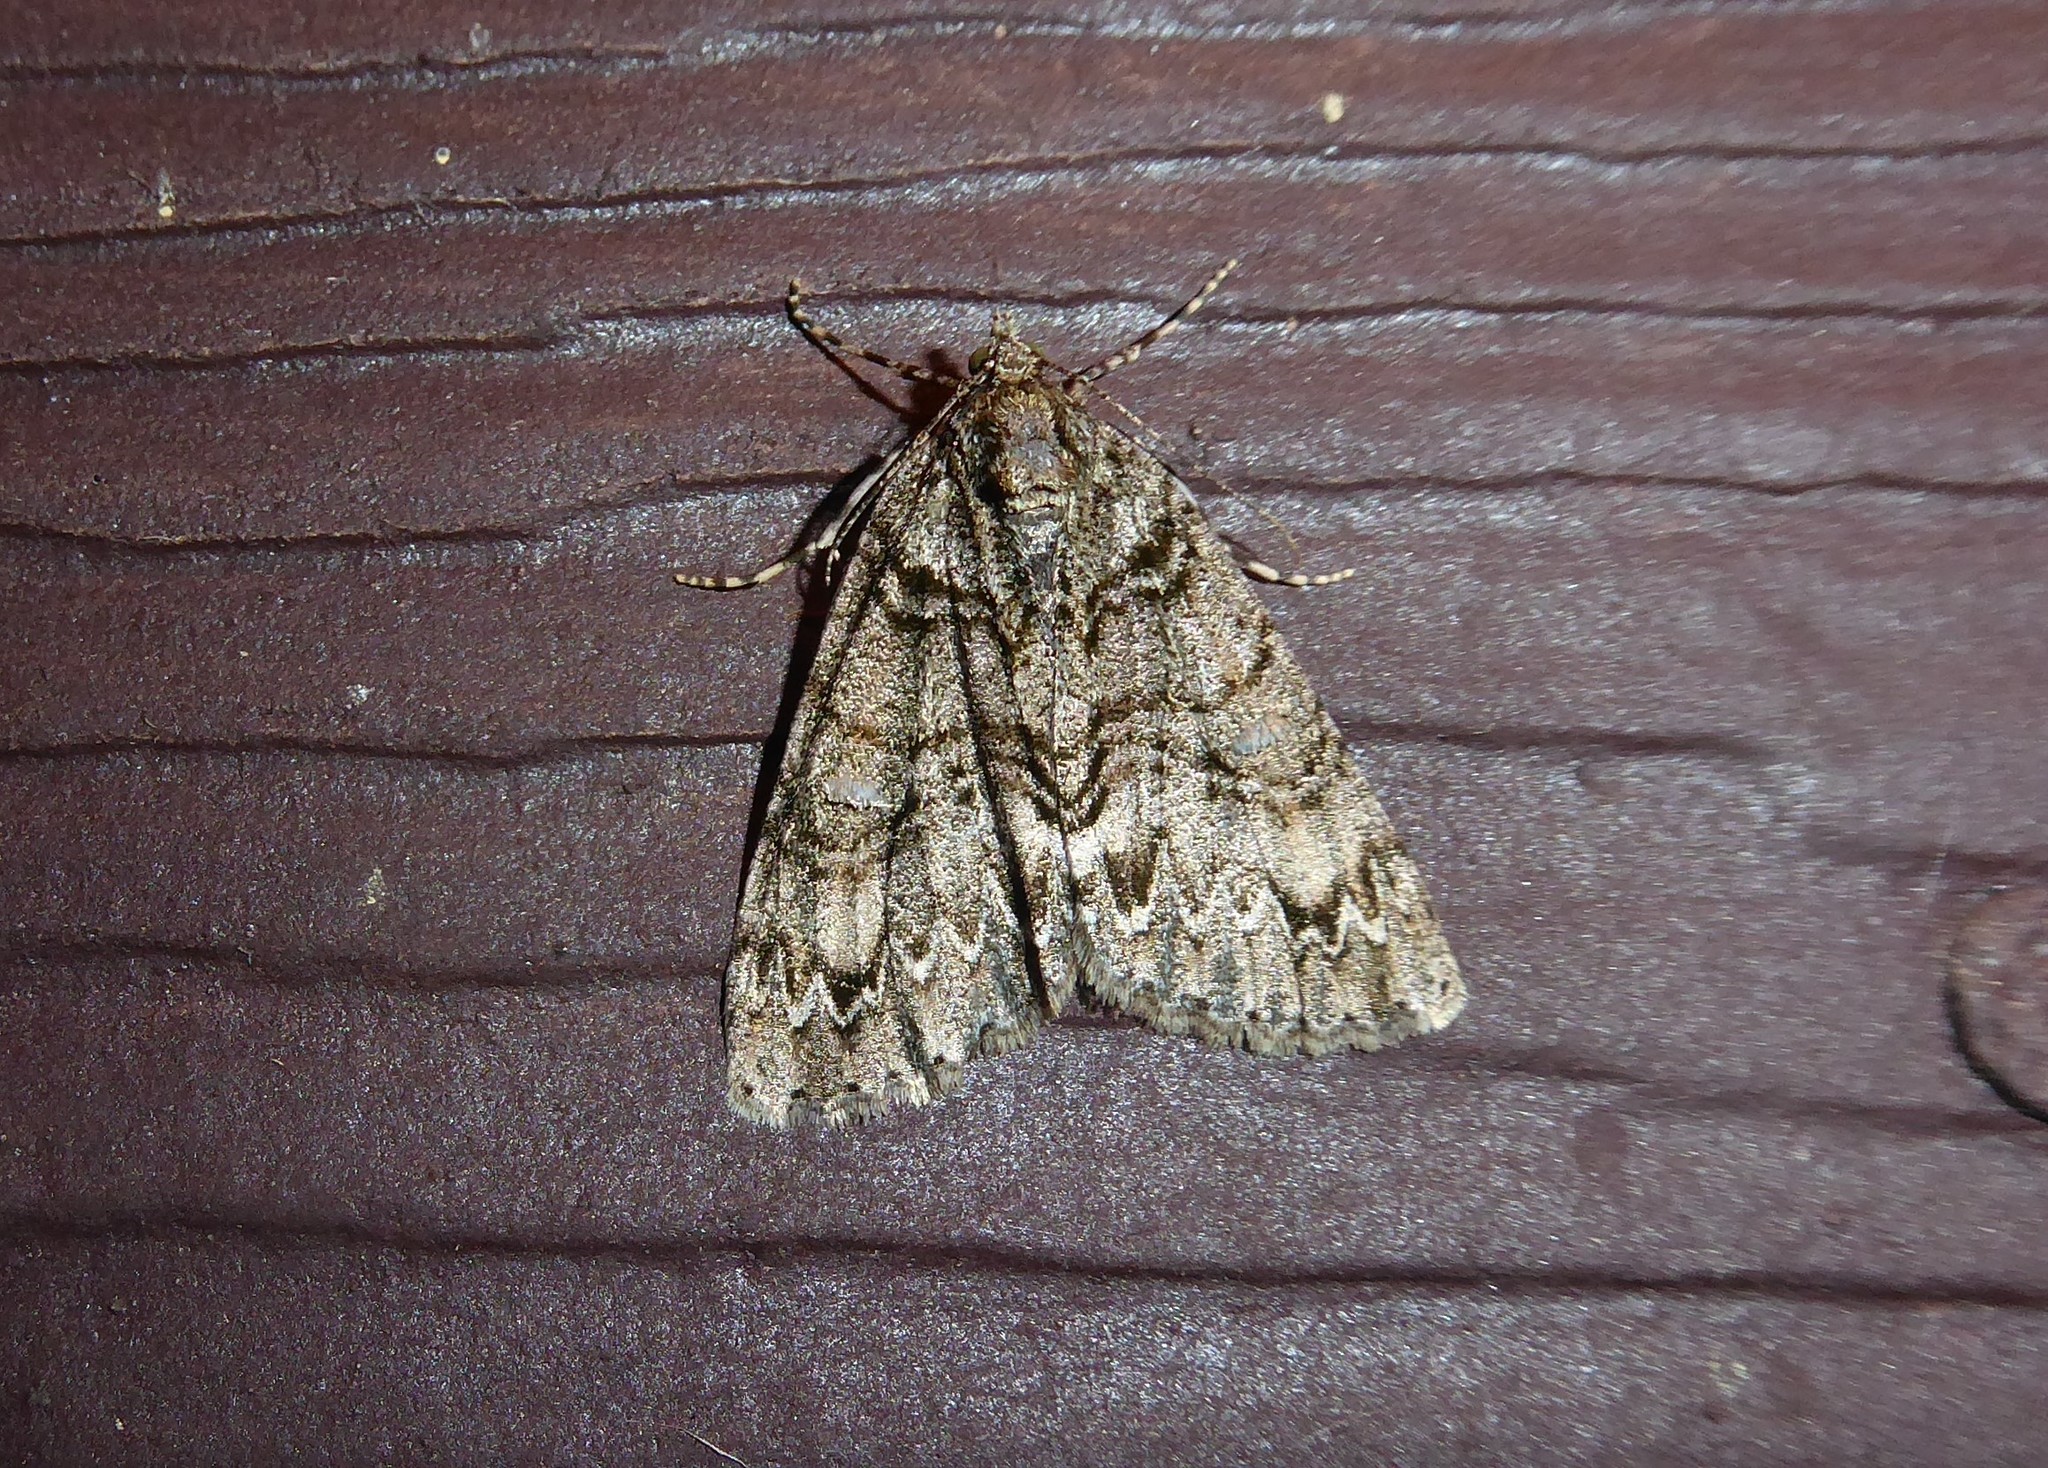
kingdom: Animalia
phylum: Arthropoda
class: Insecta
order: Lepidoptera
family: Geometridae
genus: Pseudocoremia
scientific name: Pseudocoremia suavis
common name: Common forest looper
